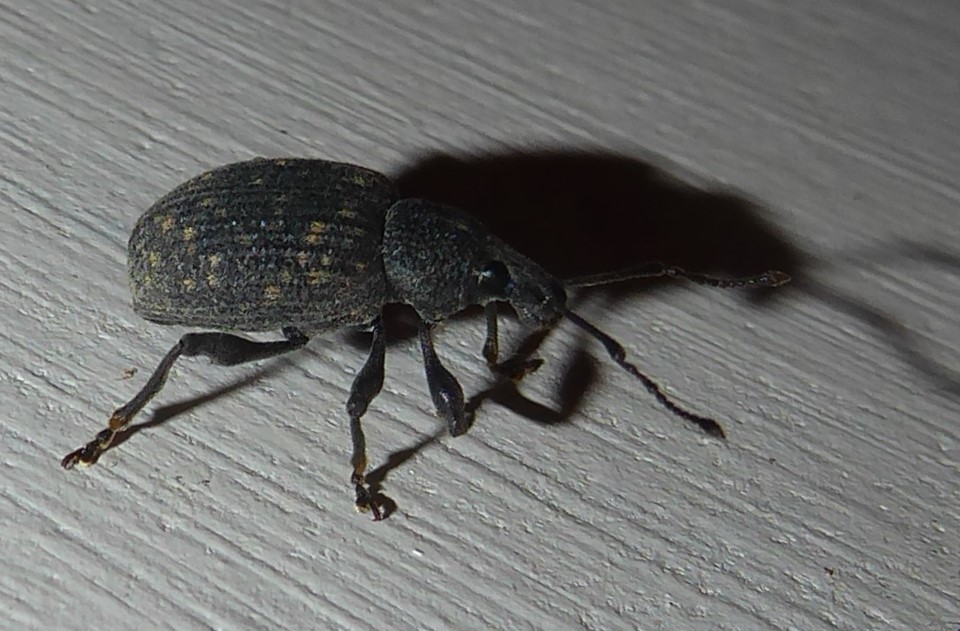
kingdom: Animalia
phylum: Arthropoda
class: Insecta
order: Coleoptera
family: Curculionidae
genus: Otiorhynchus
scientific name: Otiorhynchus sulcatus
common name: Black vine weevil
